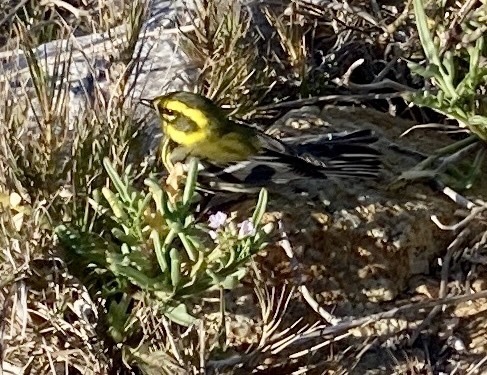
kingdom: Animalia
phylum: Chordata
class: Aves
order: Passeriformes
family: Parulidae
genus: Setophaga
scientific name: Setophaga townsendi
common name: Townsend's warbler
